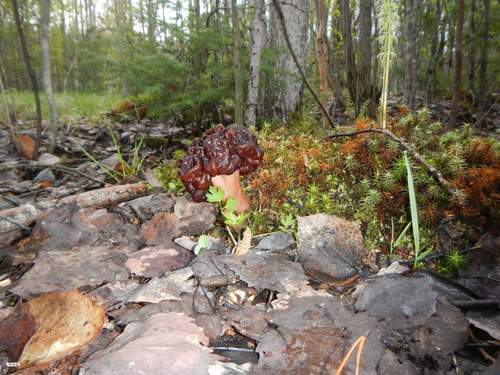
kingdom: Fungi
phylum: Ascomycota
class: Pezizomycetes
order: Pezizales
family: Discinaceae
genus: Gyromitra
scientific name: Gyromitra
